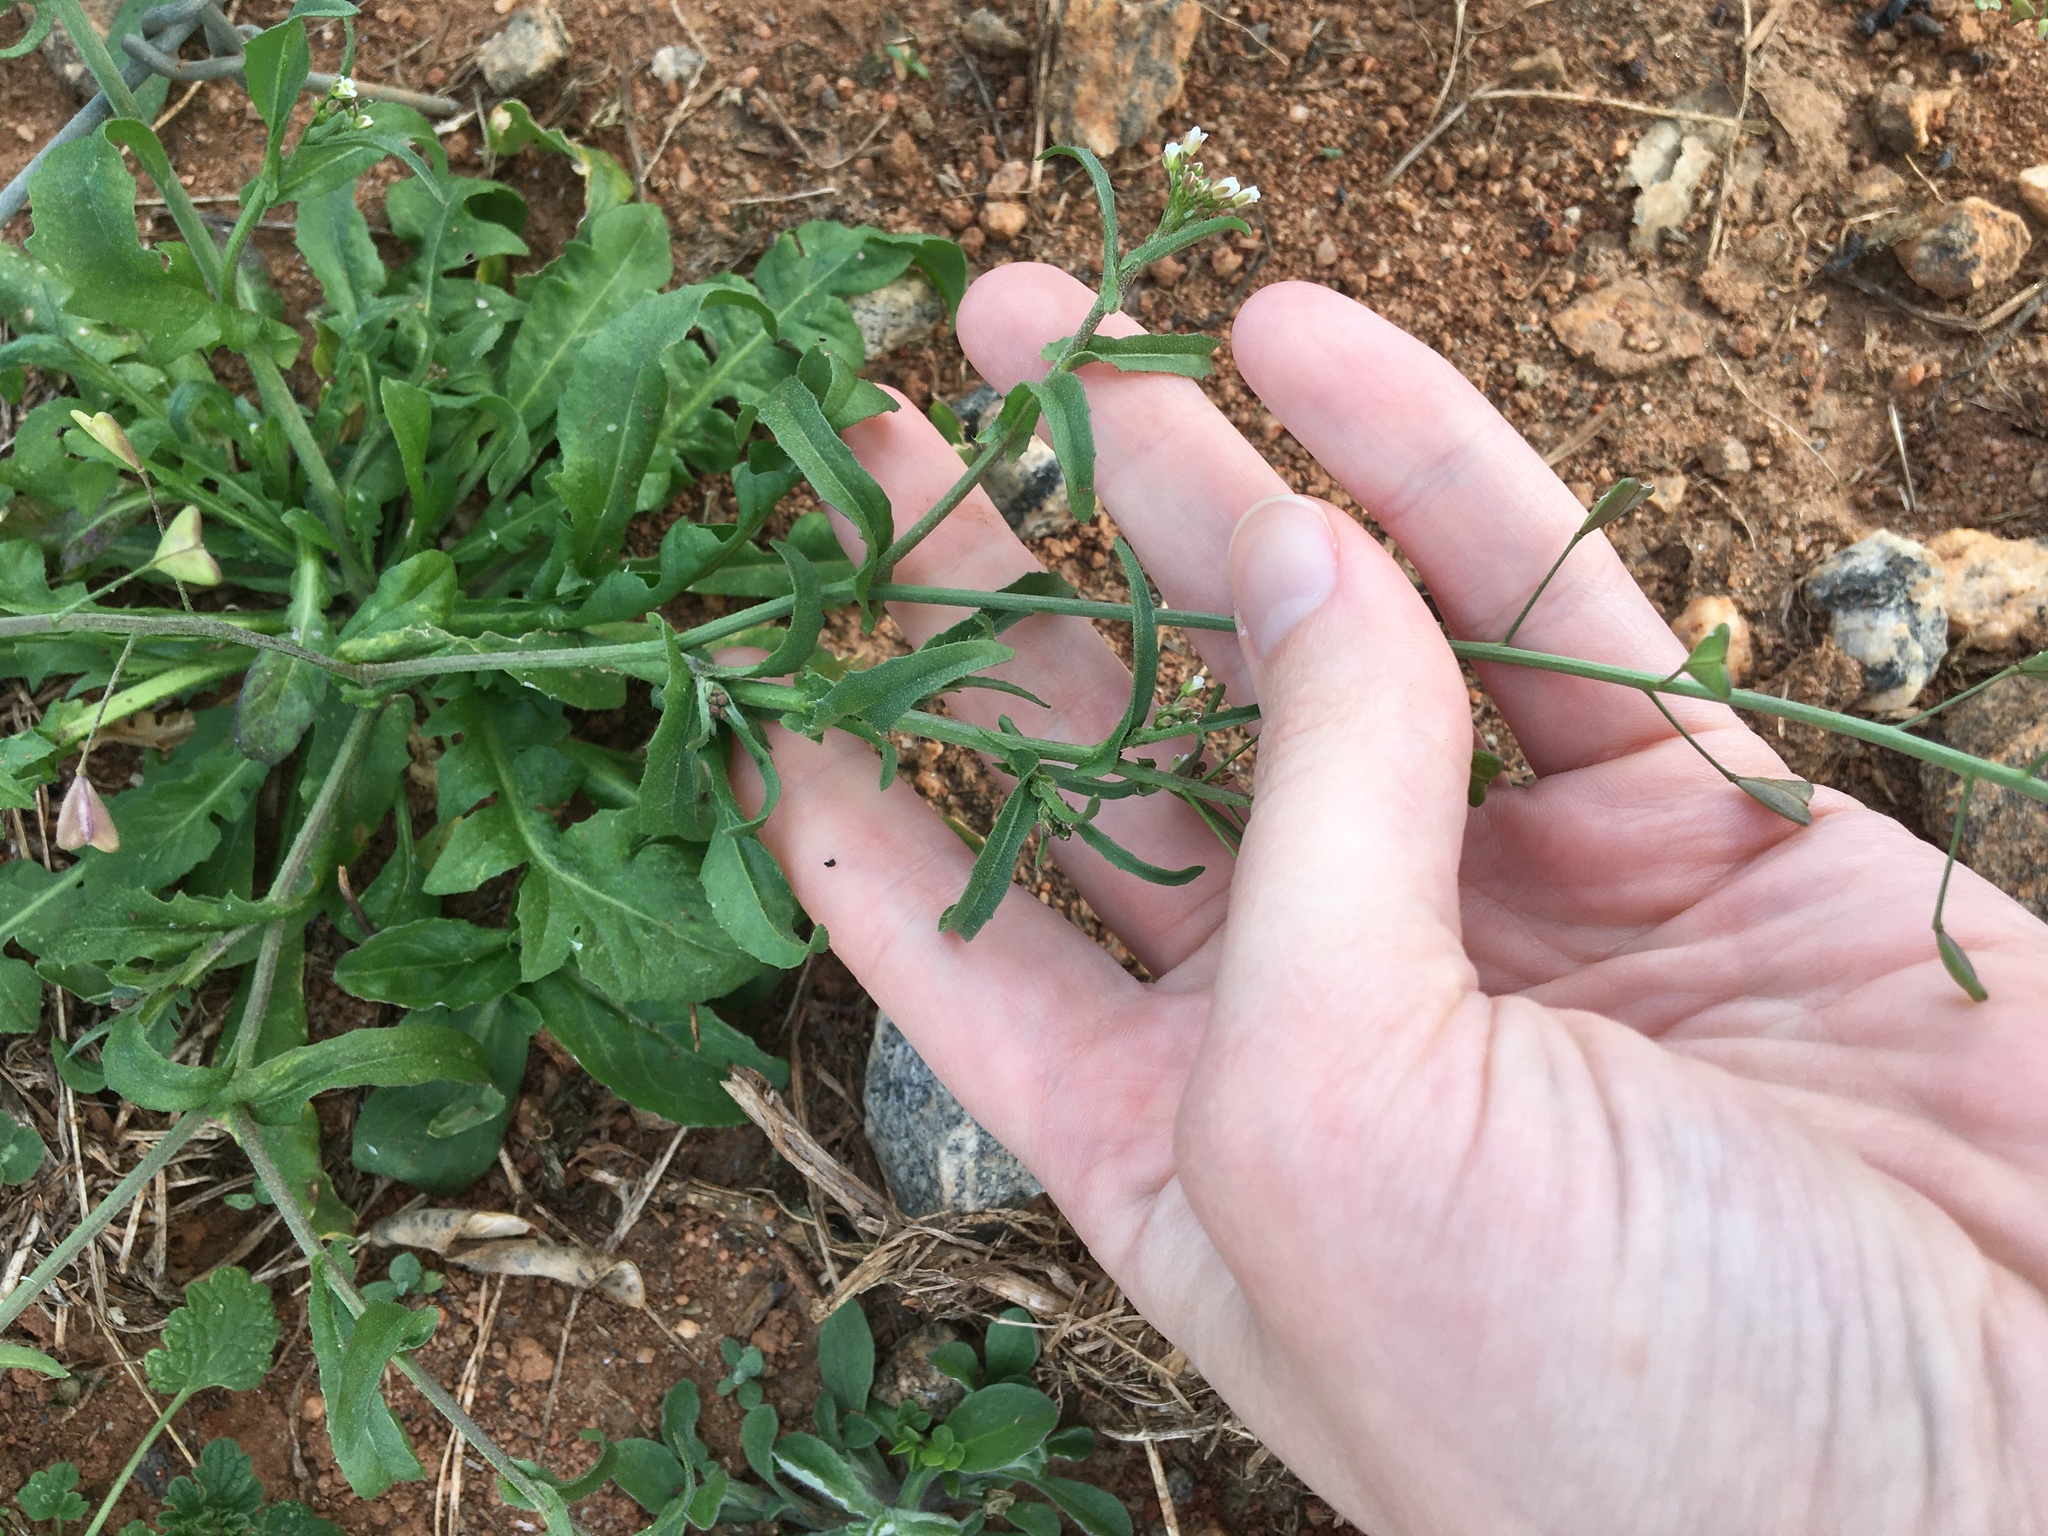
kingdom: Plantae
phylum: Tracheophyta
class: Magnoliopsida
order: Brassicales
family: Brassicaceae
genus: Capsella
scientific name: Capsella bursa-pastoris
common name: Shepherd's purse
